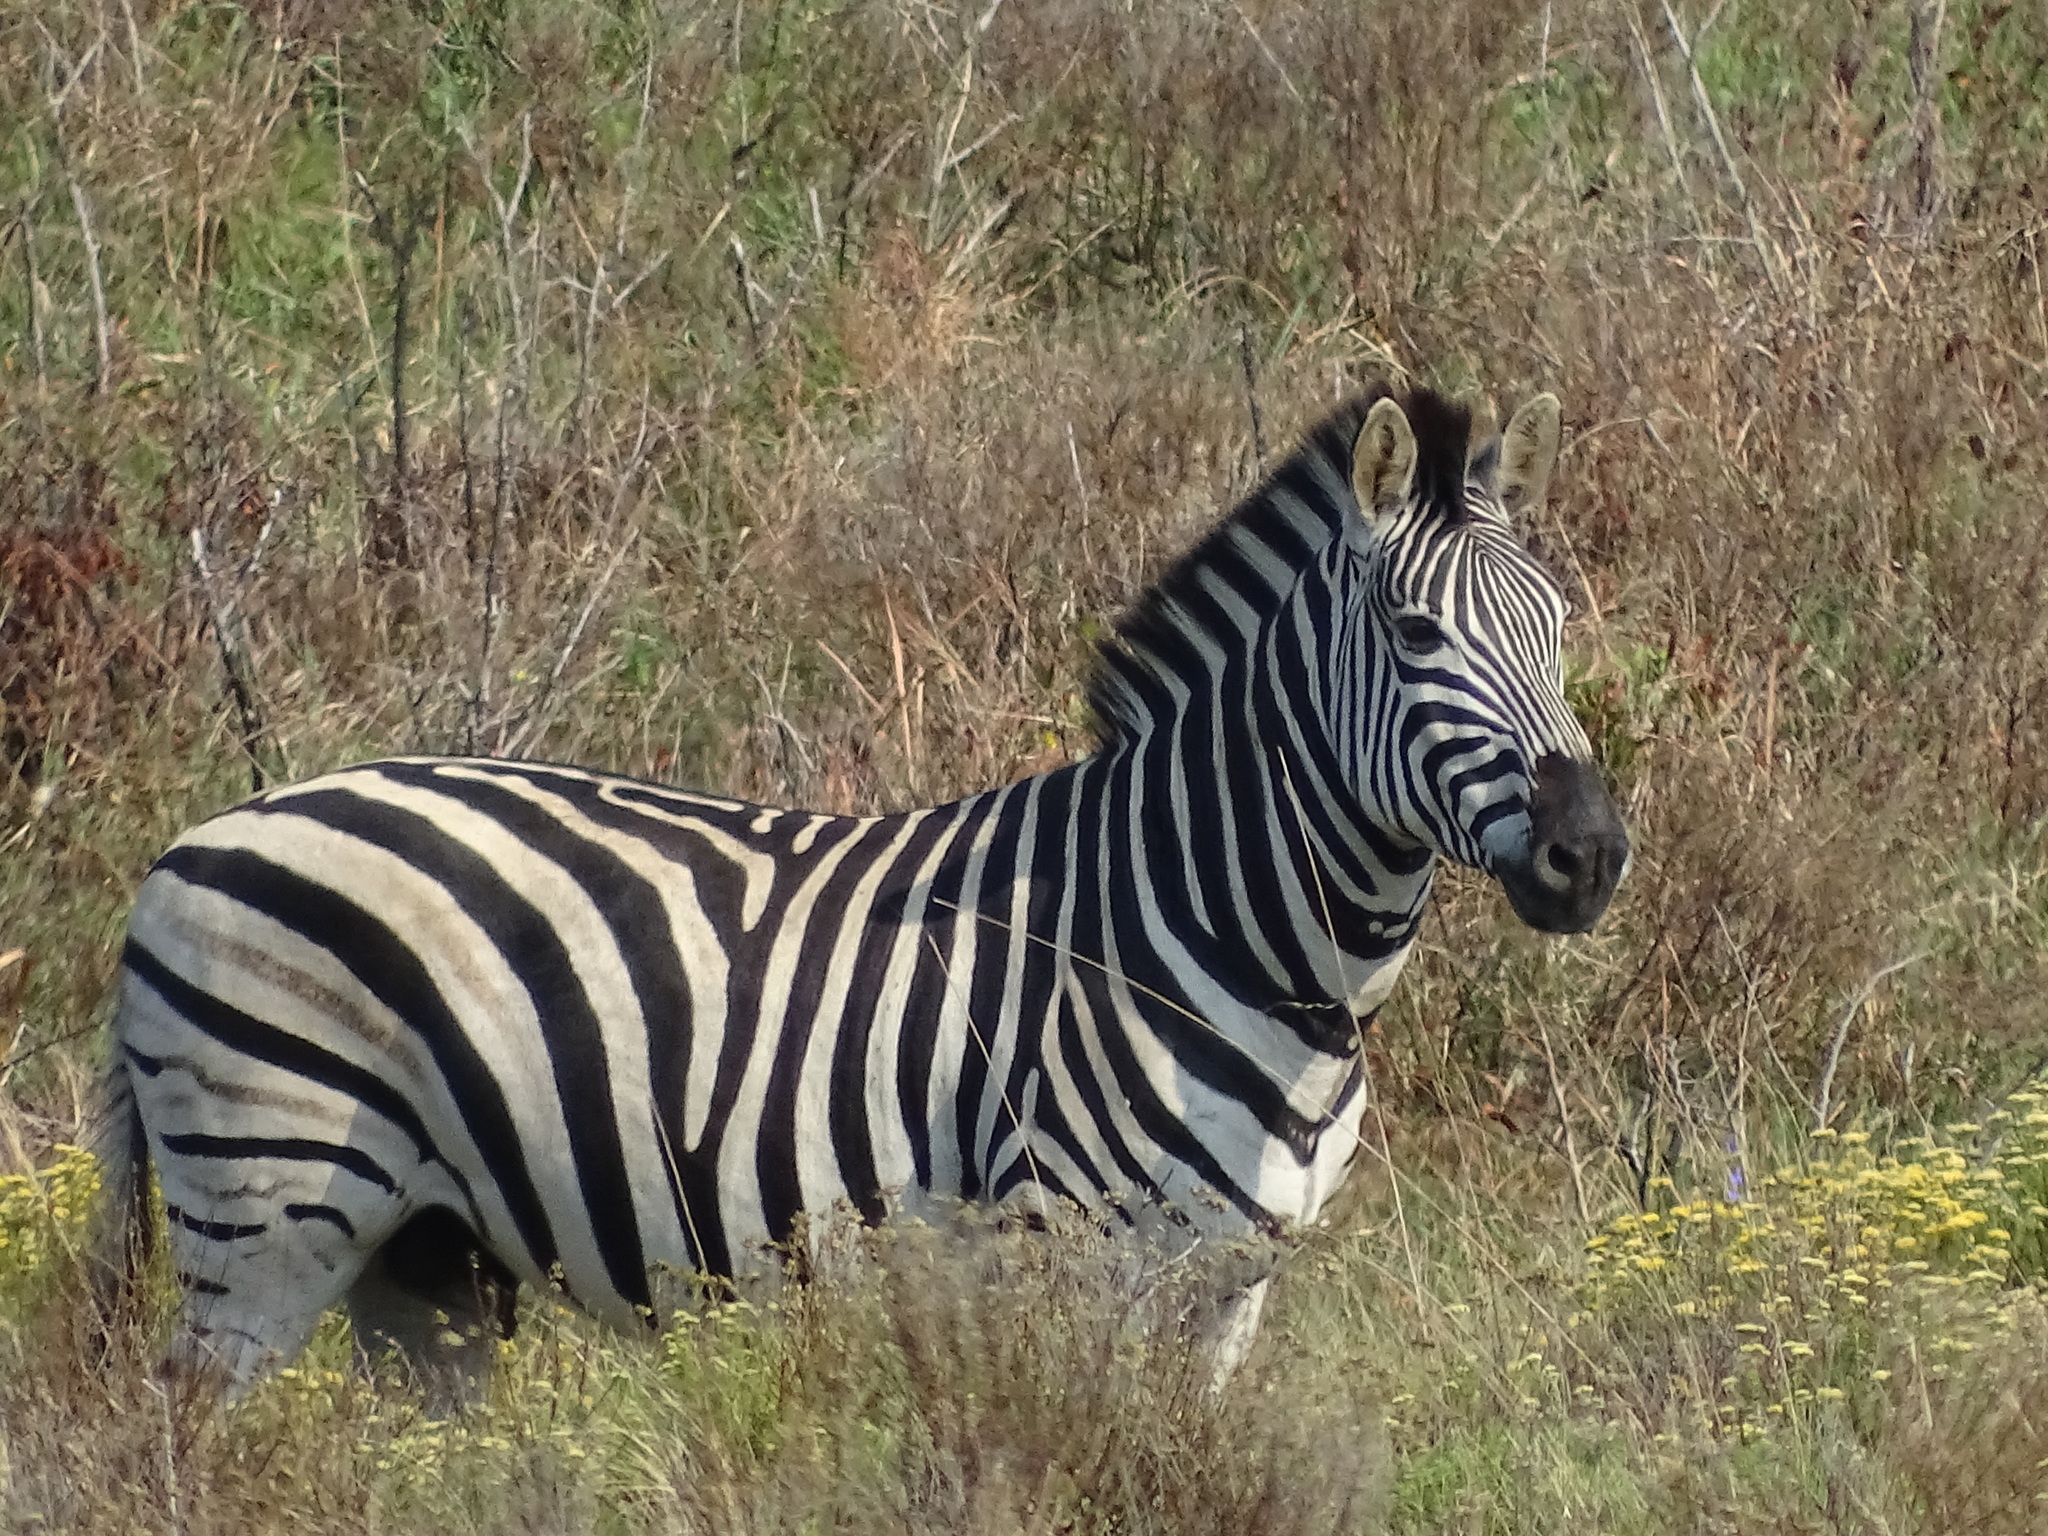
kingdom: Animalia
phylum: Chordata
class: Mammalia
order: Perissodactyla
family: Equidae
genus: Equus
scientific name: Equus quagga
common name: Plains zebra
